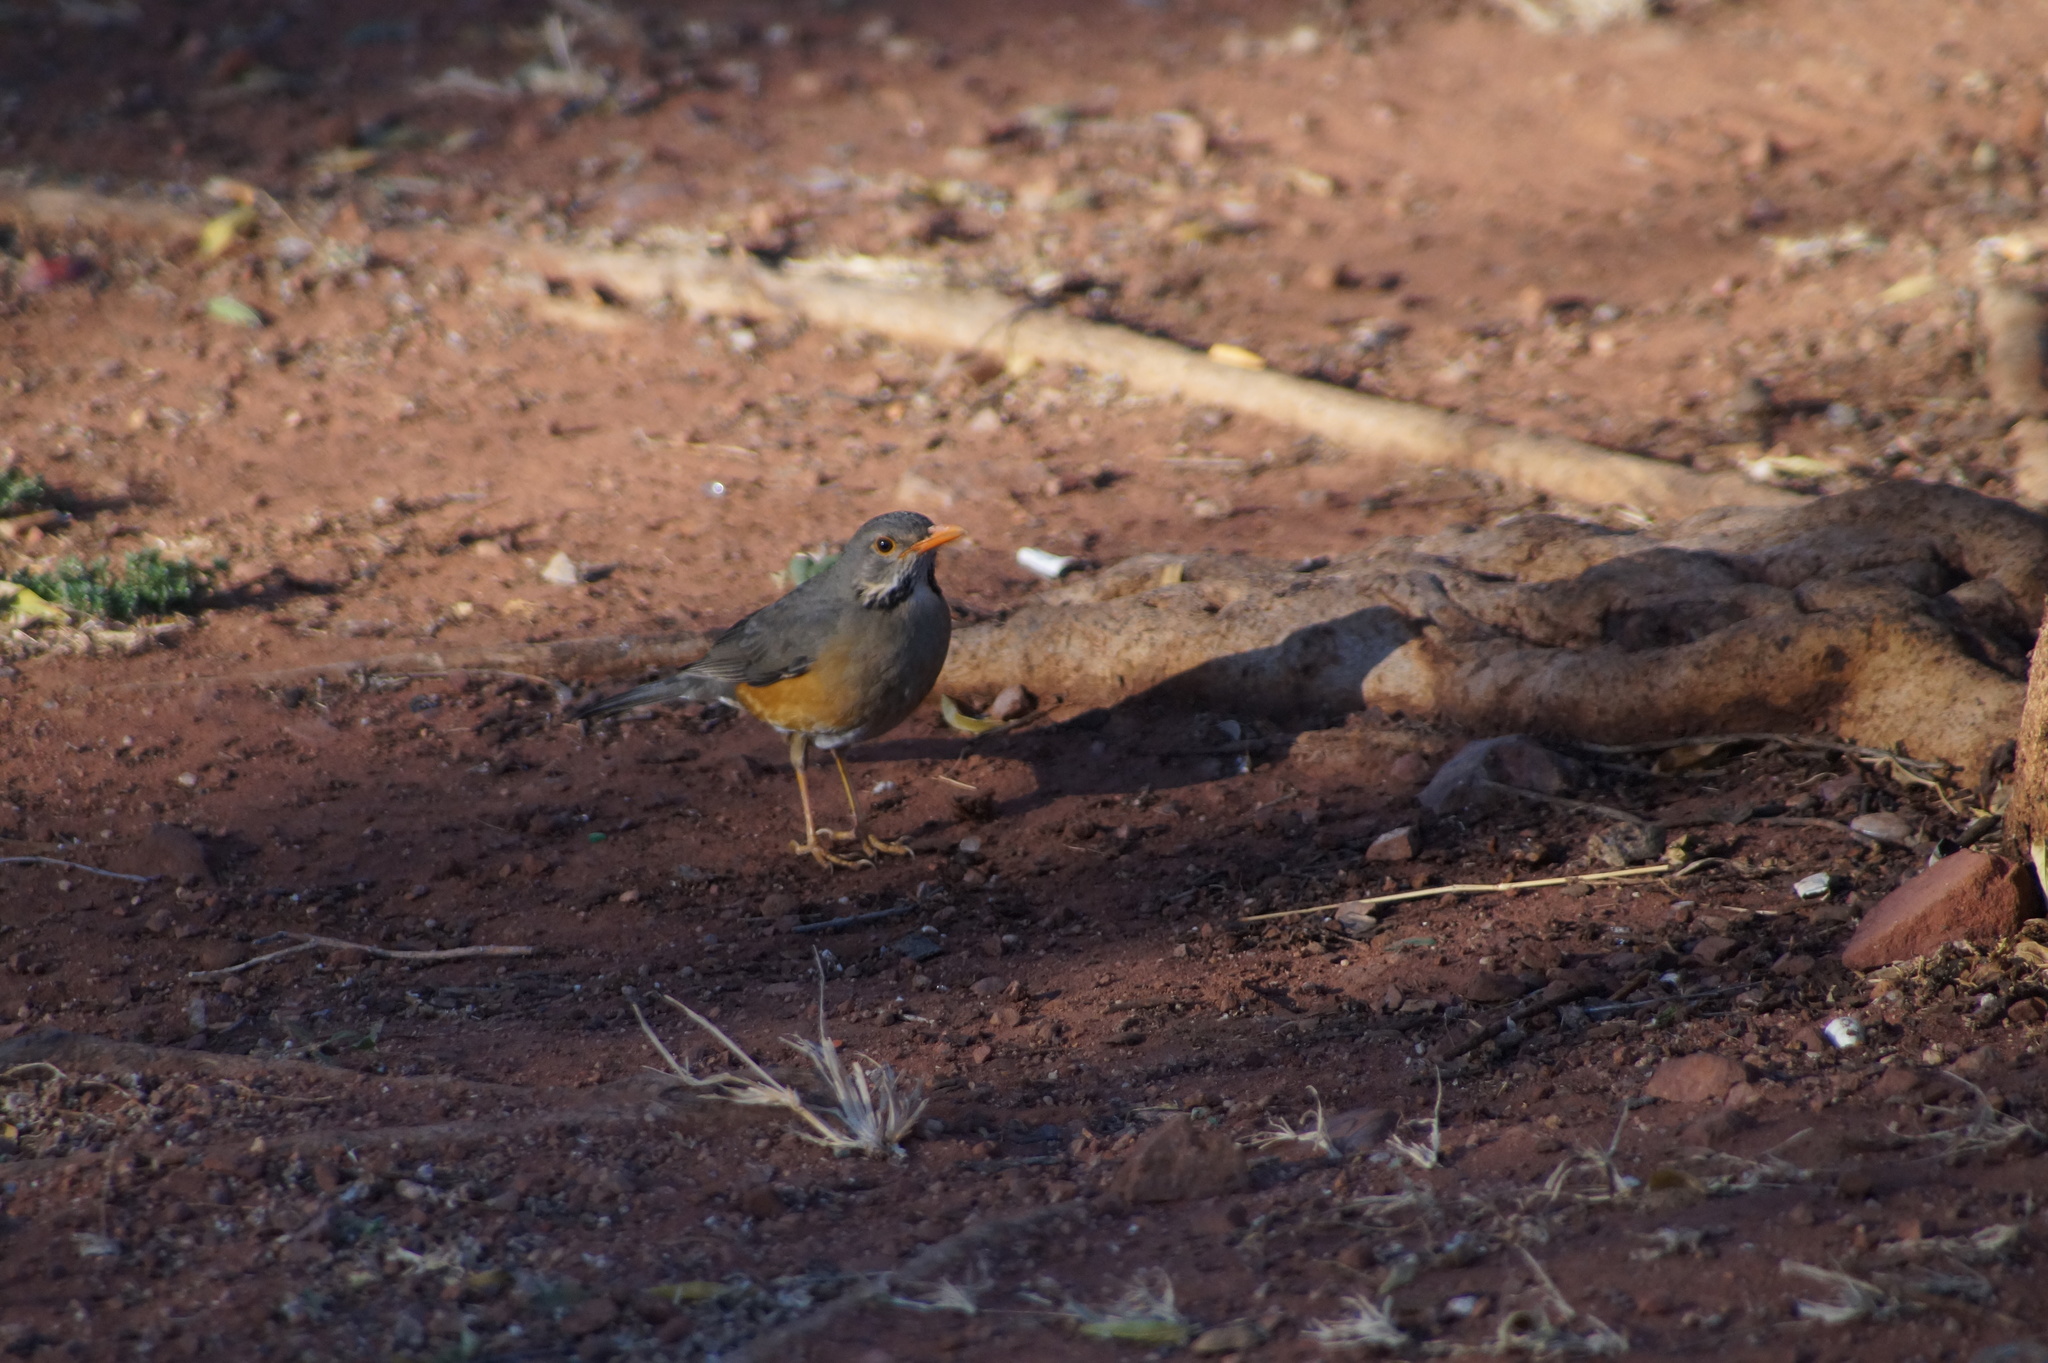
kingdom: Animalia
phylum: Chordata
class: Aves
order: Passeriformes
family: Turdidae
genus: Turdus
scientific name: Turdus libonyana
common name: Kurrichane thrush
